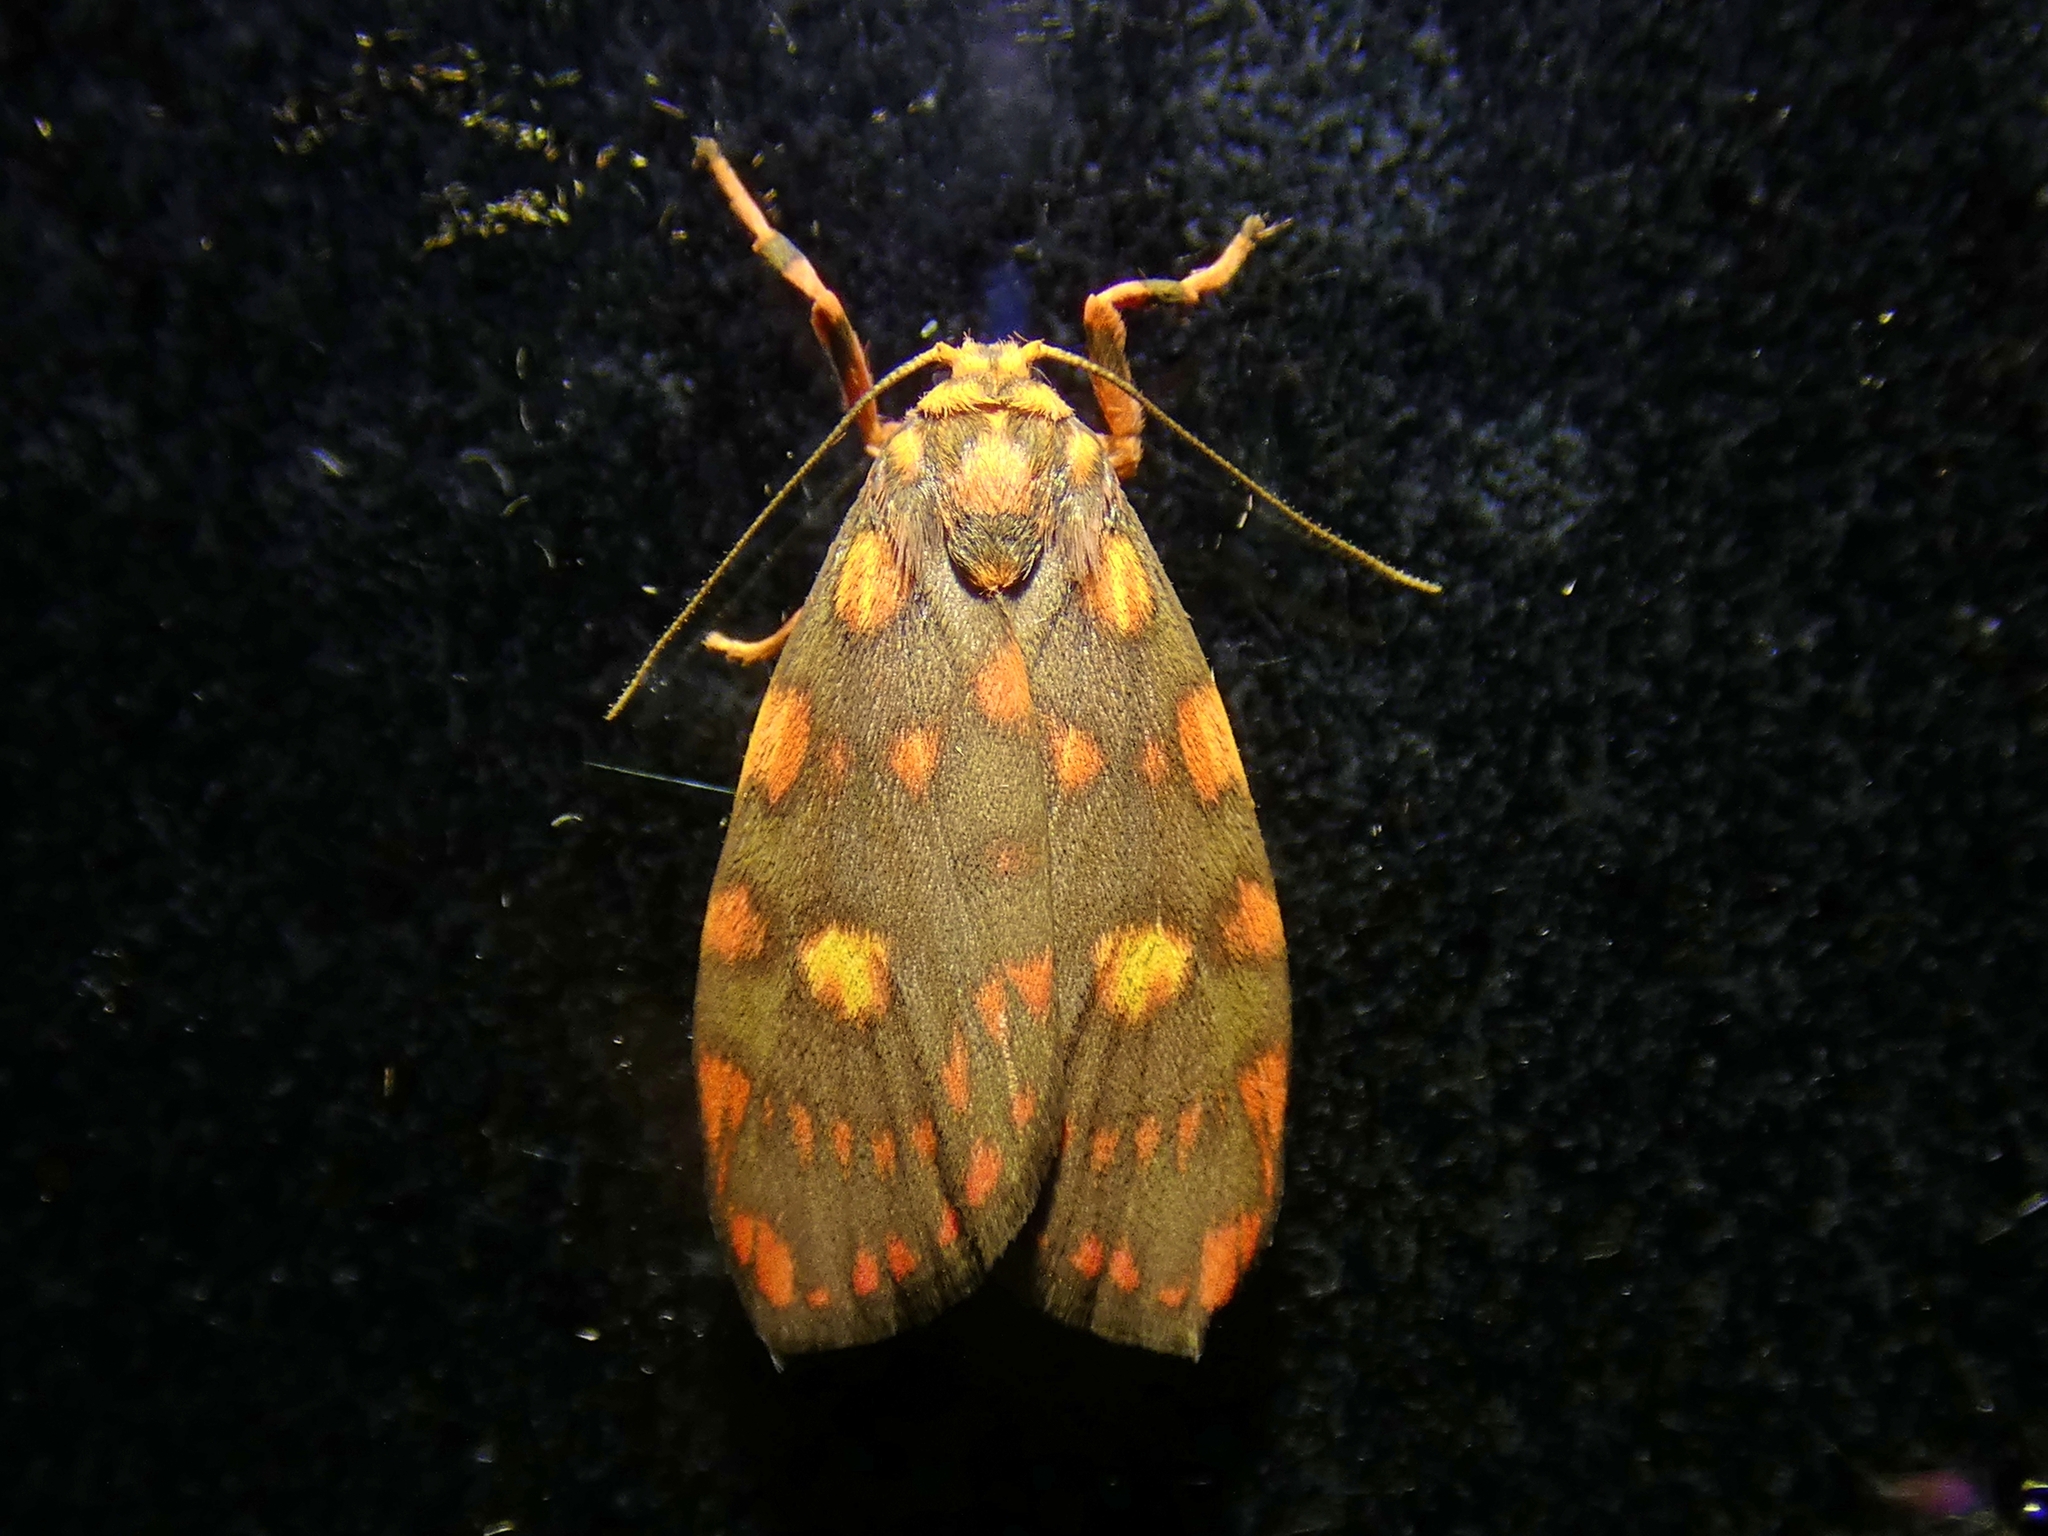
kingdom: Animalia
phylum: Arthropoda
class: Insecta
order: Lepidoptera
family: Erebidae
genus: Cyme
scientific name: Cyme reticulata
